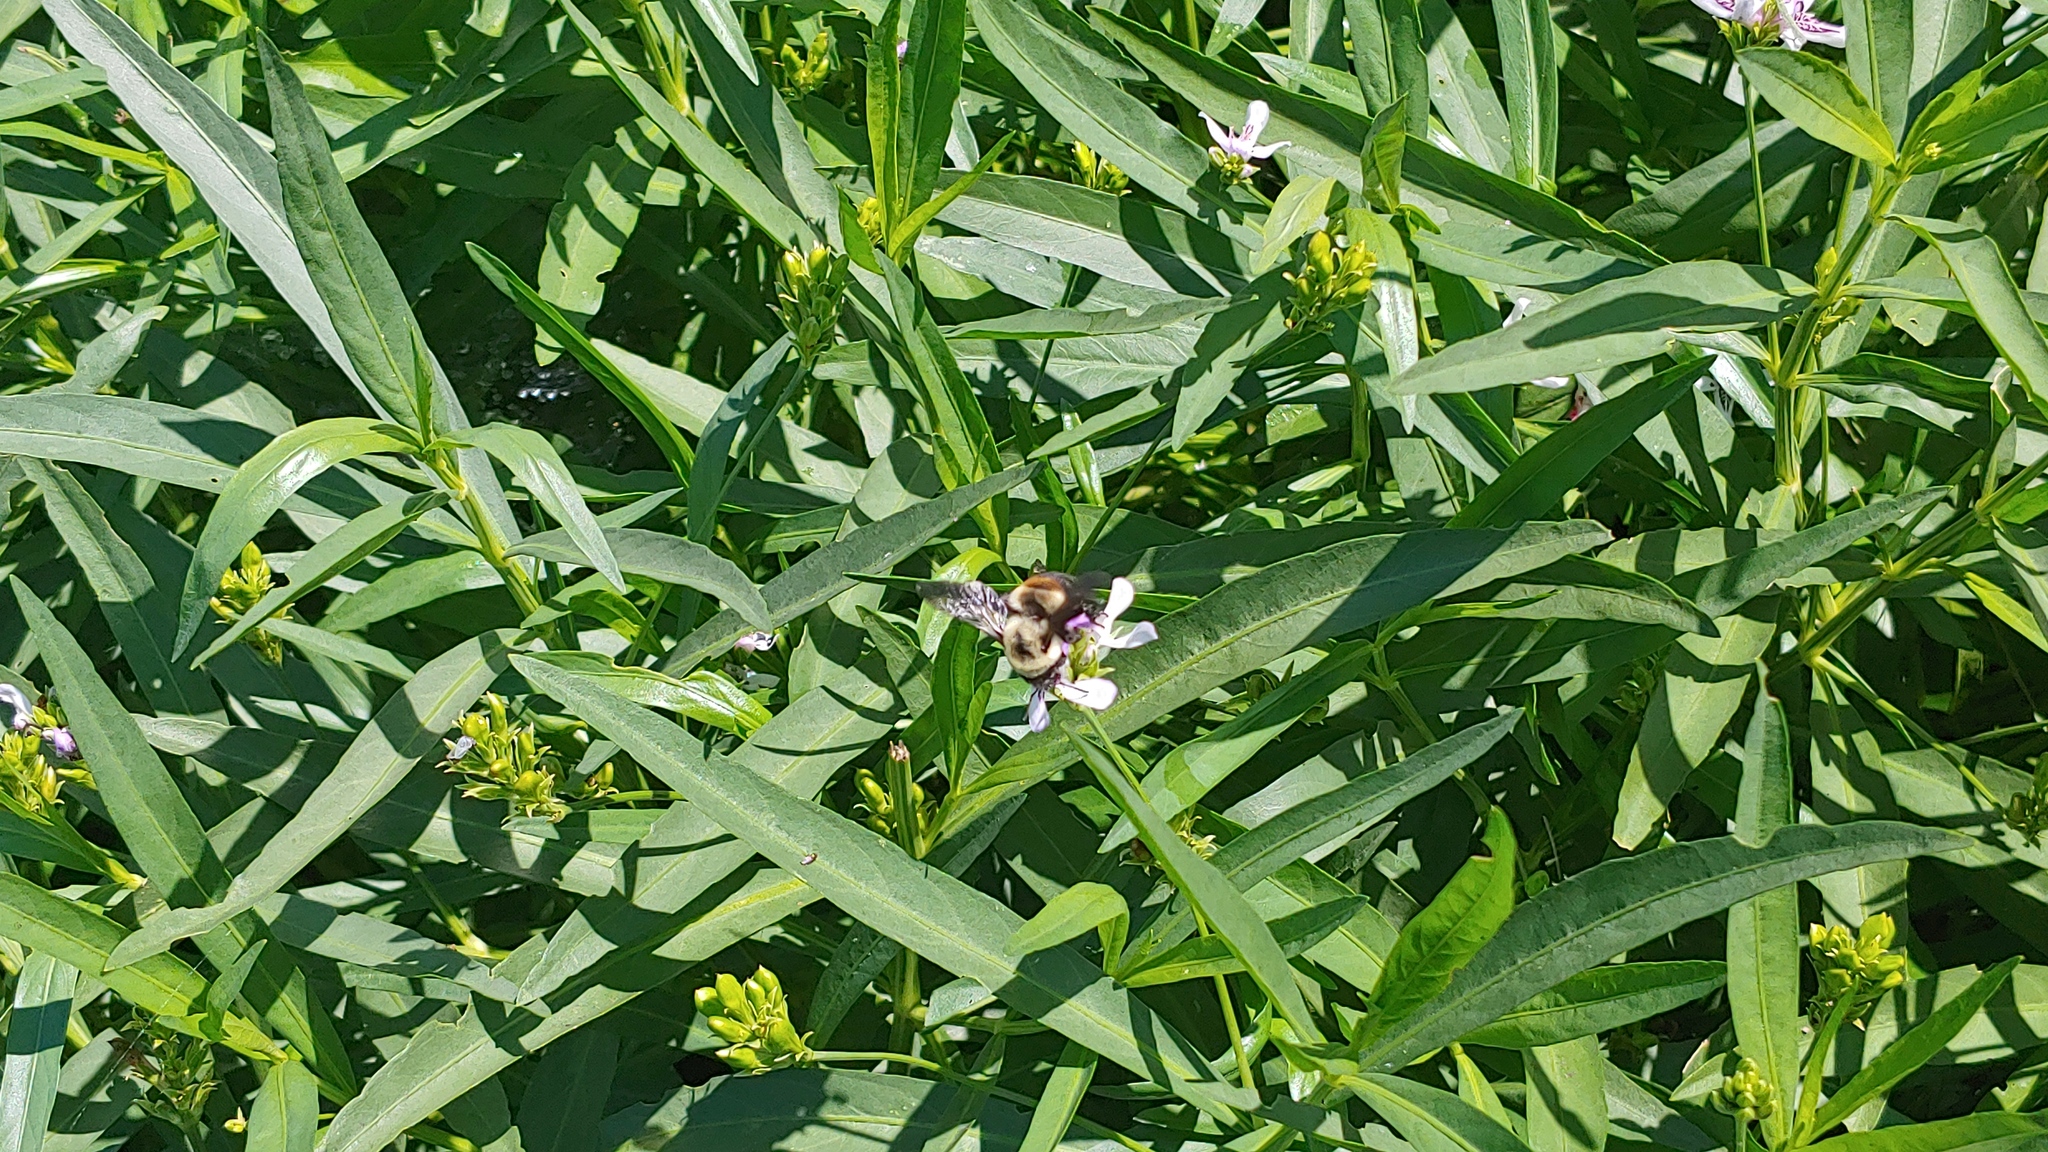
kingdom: Animalia
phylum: Arthropoda
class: Insecta
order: Hymenoptera
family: Apidae
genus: Bombus
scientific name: Bombus griseocollis
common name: Brown-belted bumble bee
